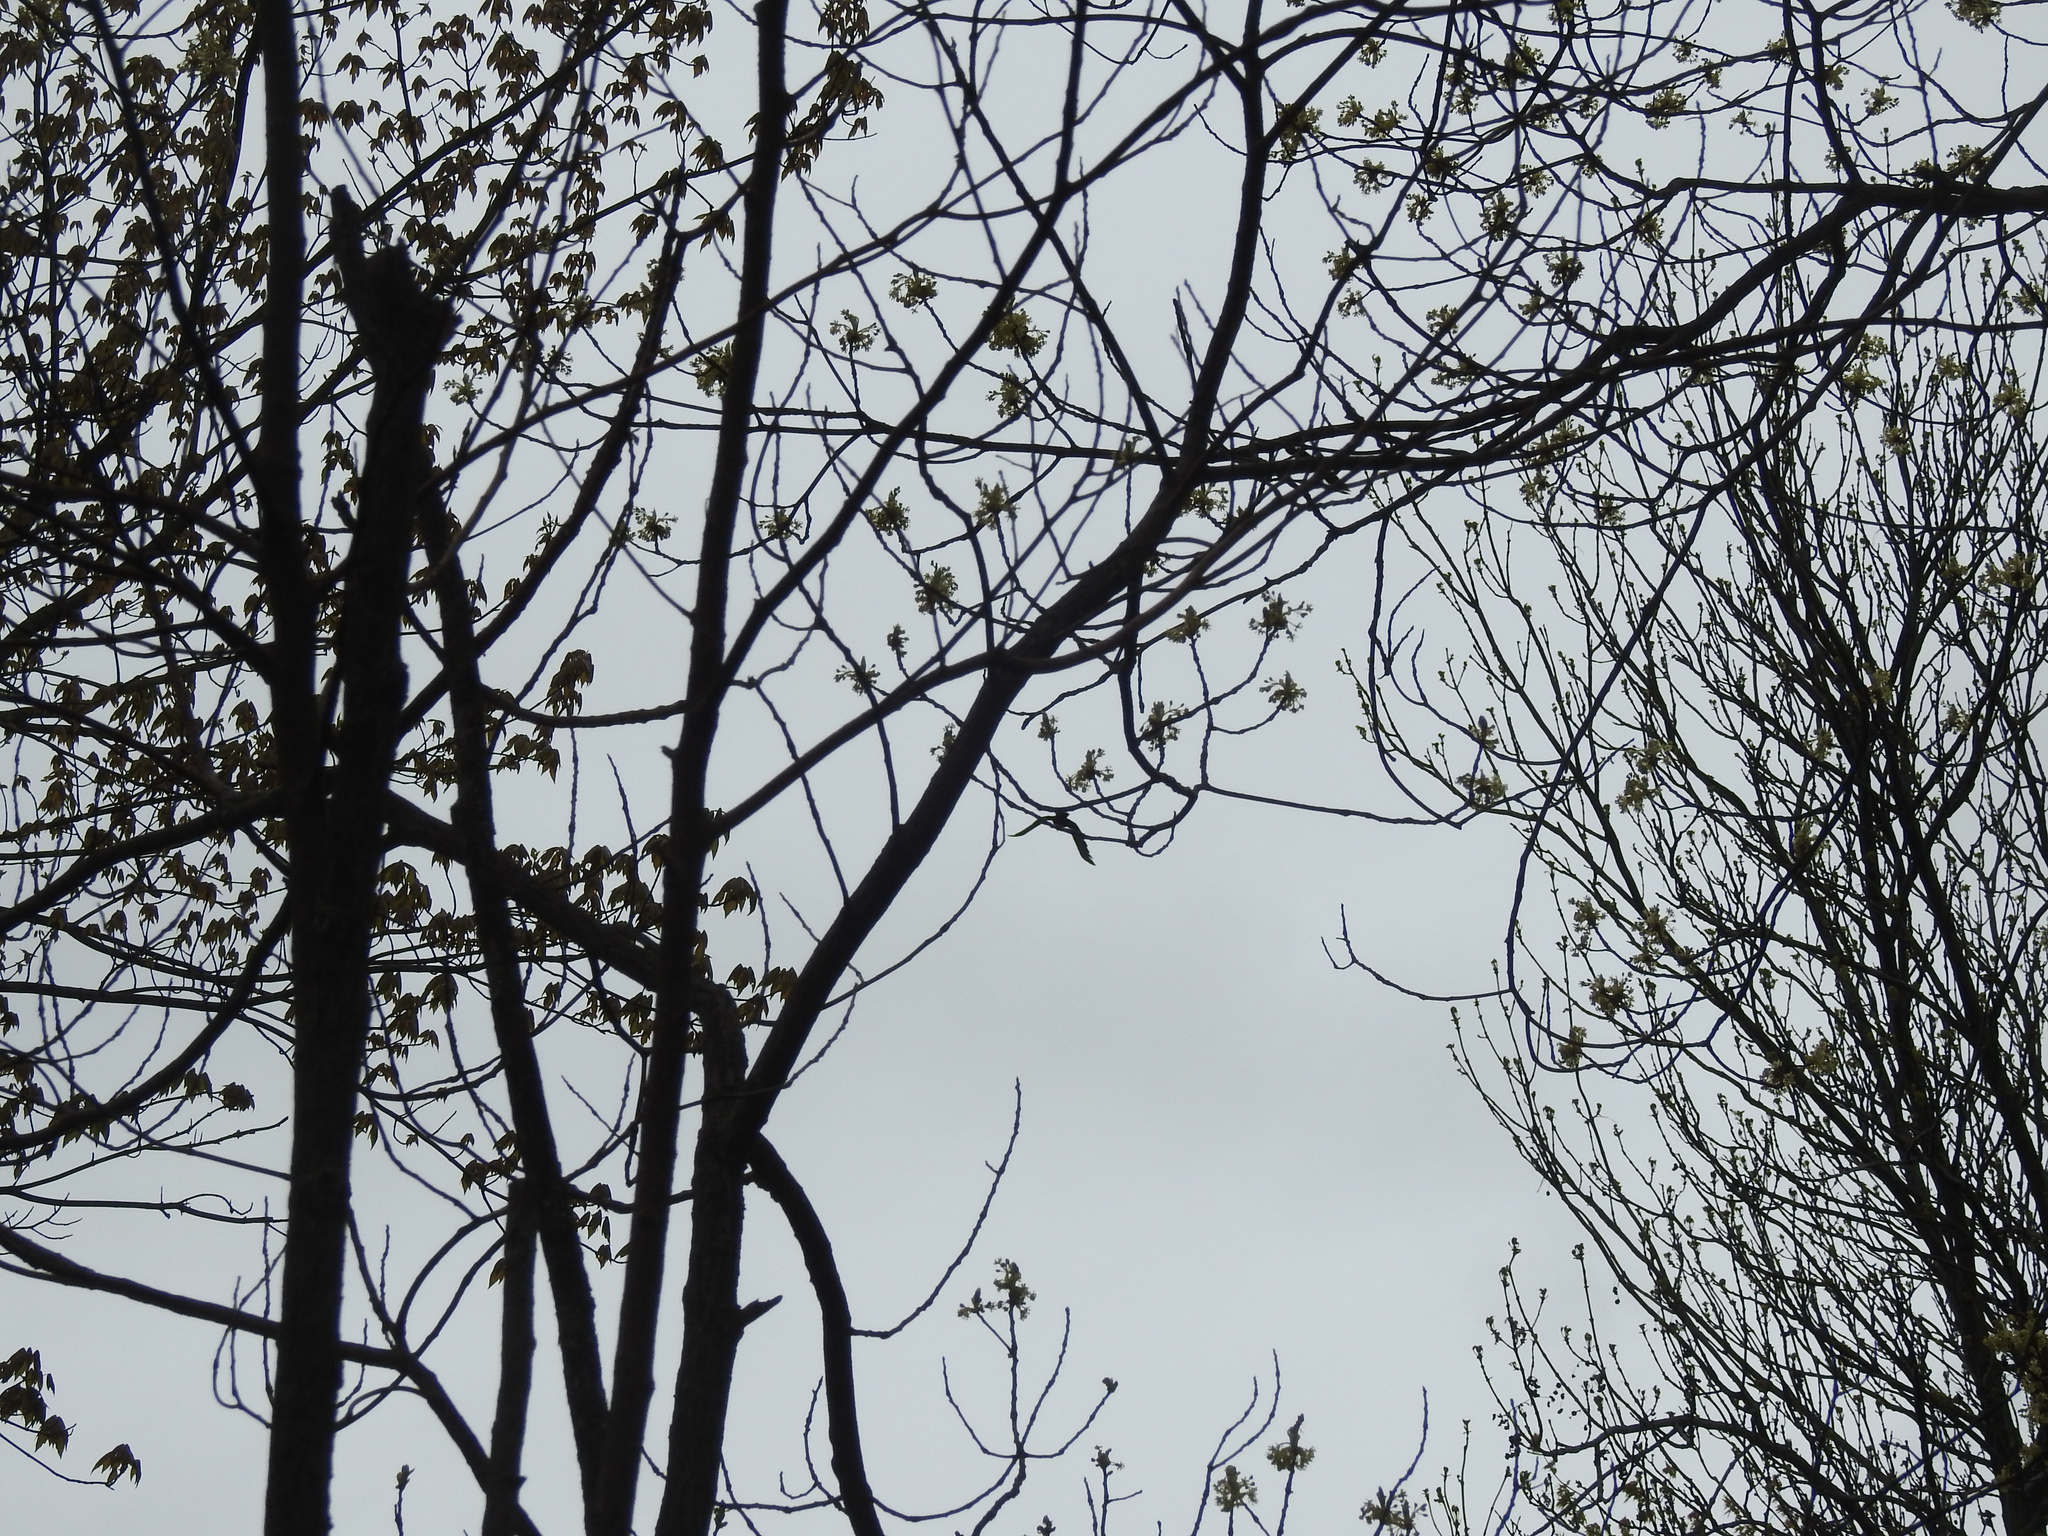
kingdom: Plantae
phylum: Tracheophyta
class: Magnoliopsida
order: Laurales
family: Lauraceae
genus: Sassafras
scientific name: Sassafras albidum
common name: Sassafras
